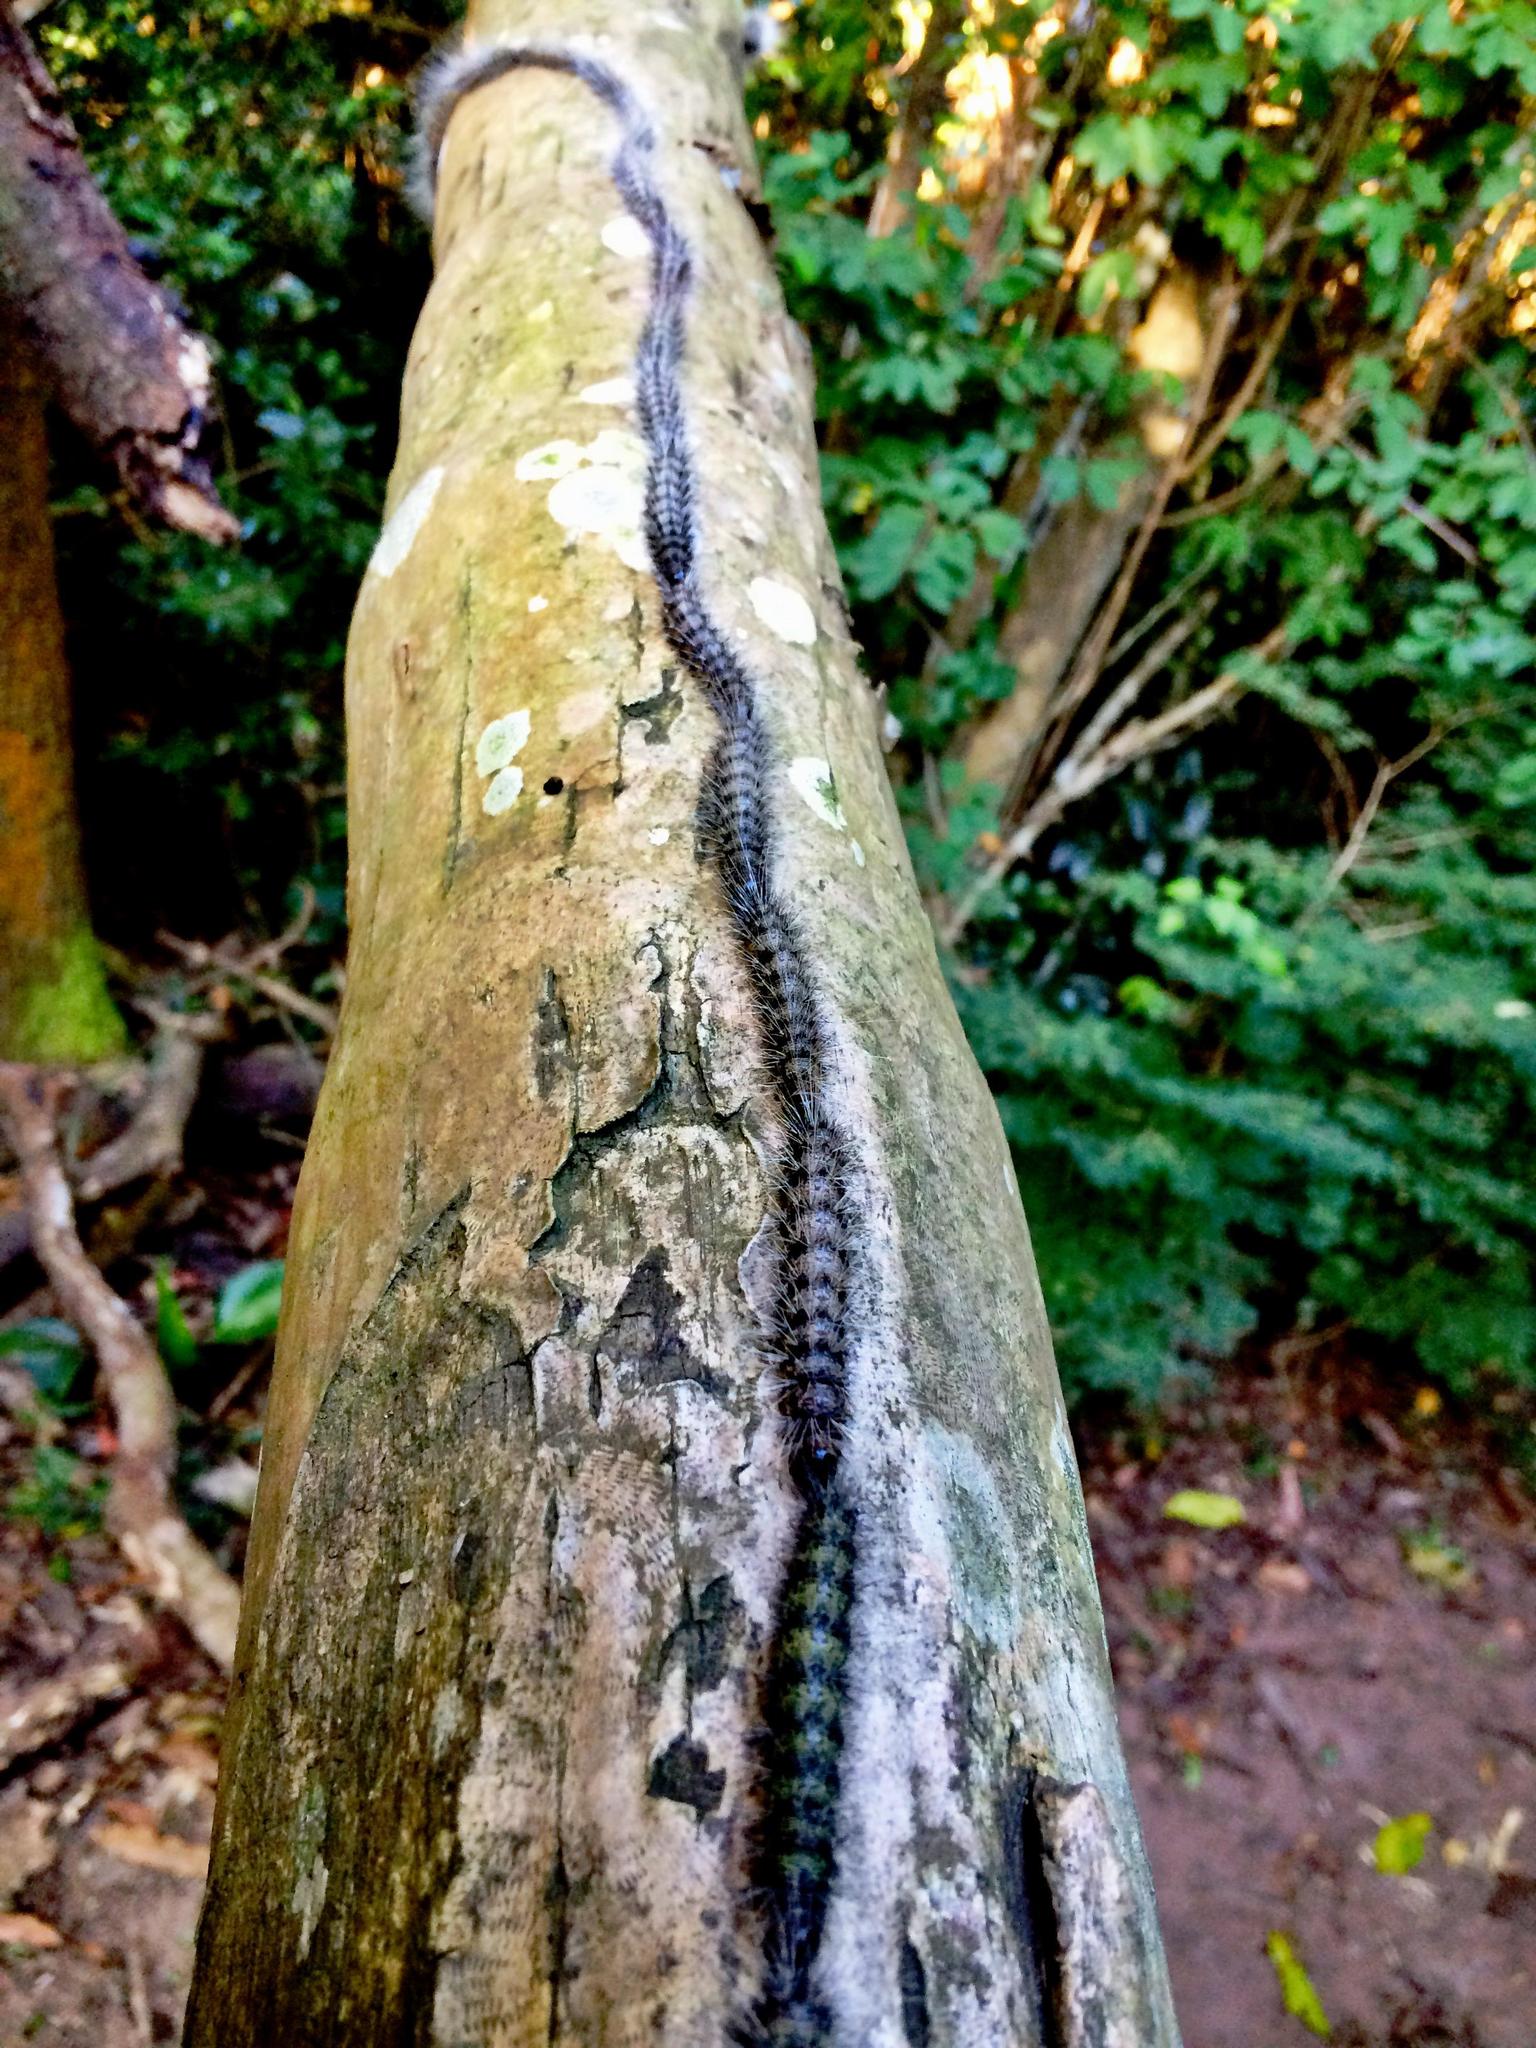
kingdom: Animalia
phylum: Arthropoda
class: Insecta
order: Lepidoptera
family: Notodontidae
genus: Anaphe
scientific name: Anaphe reticulata
